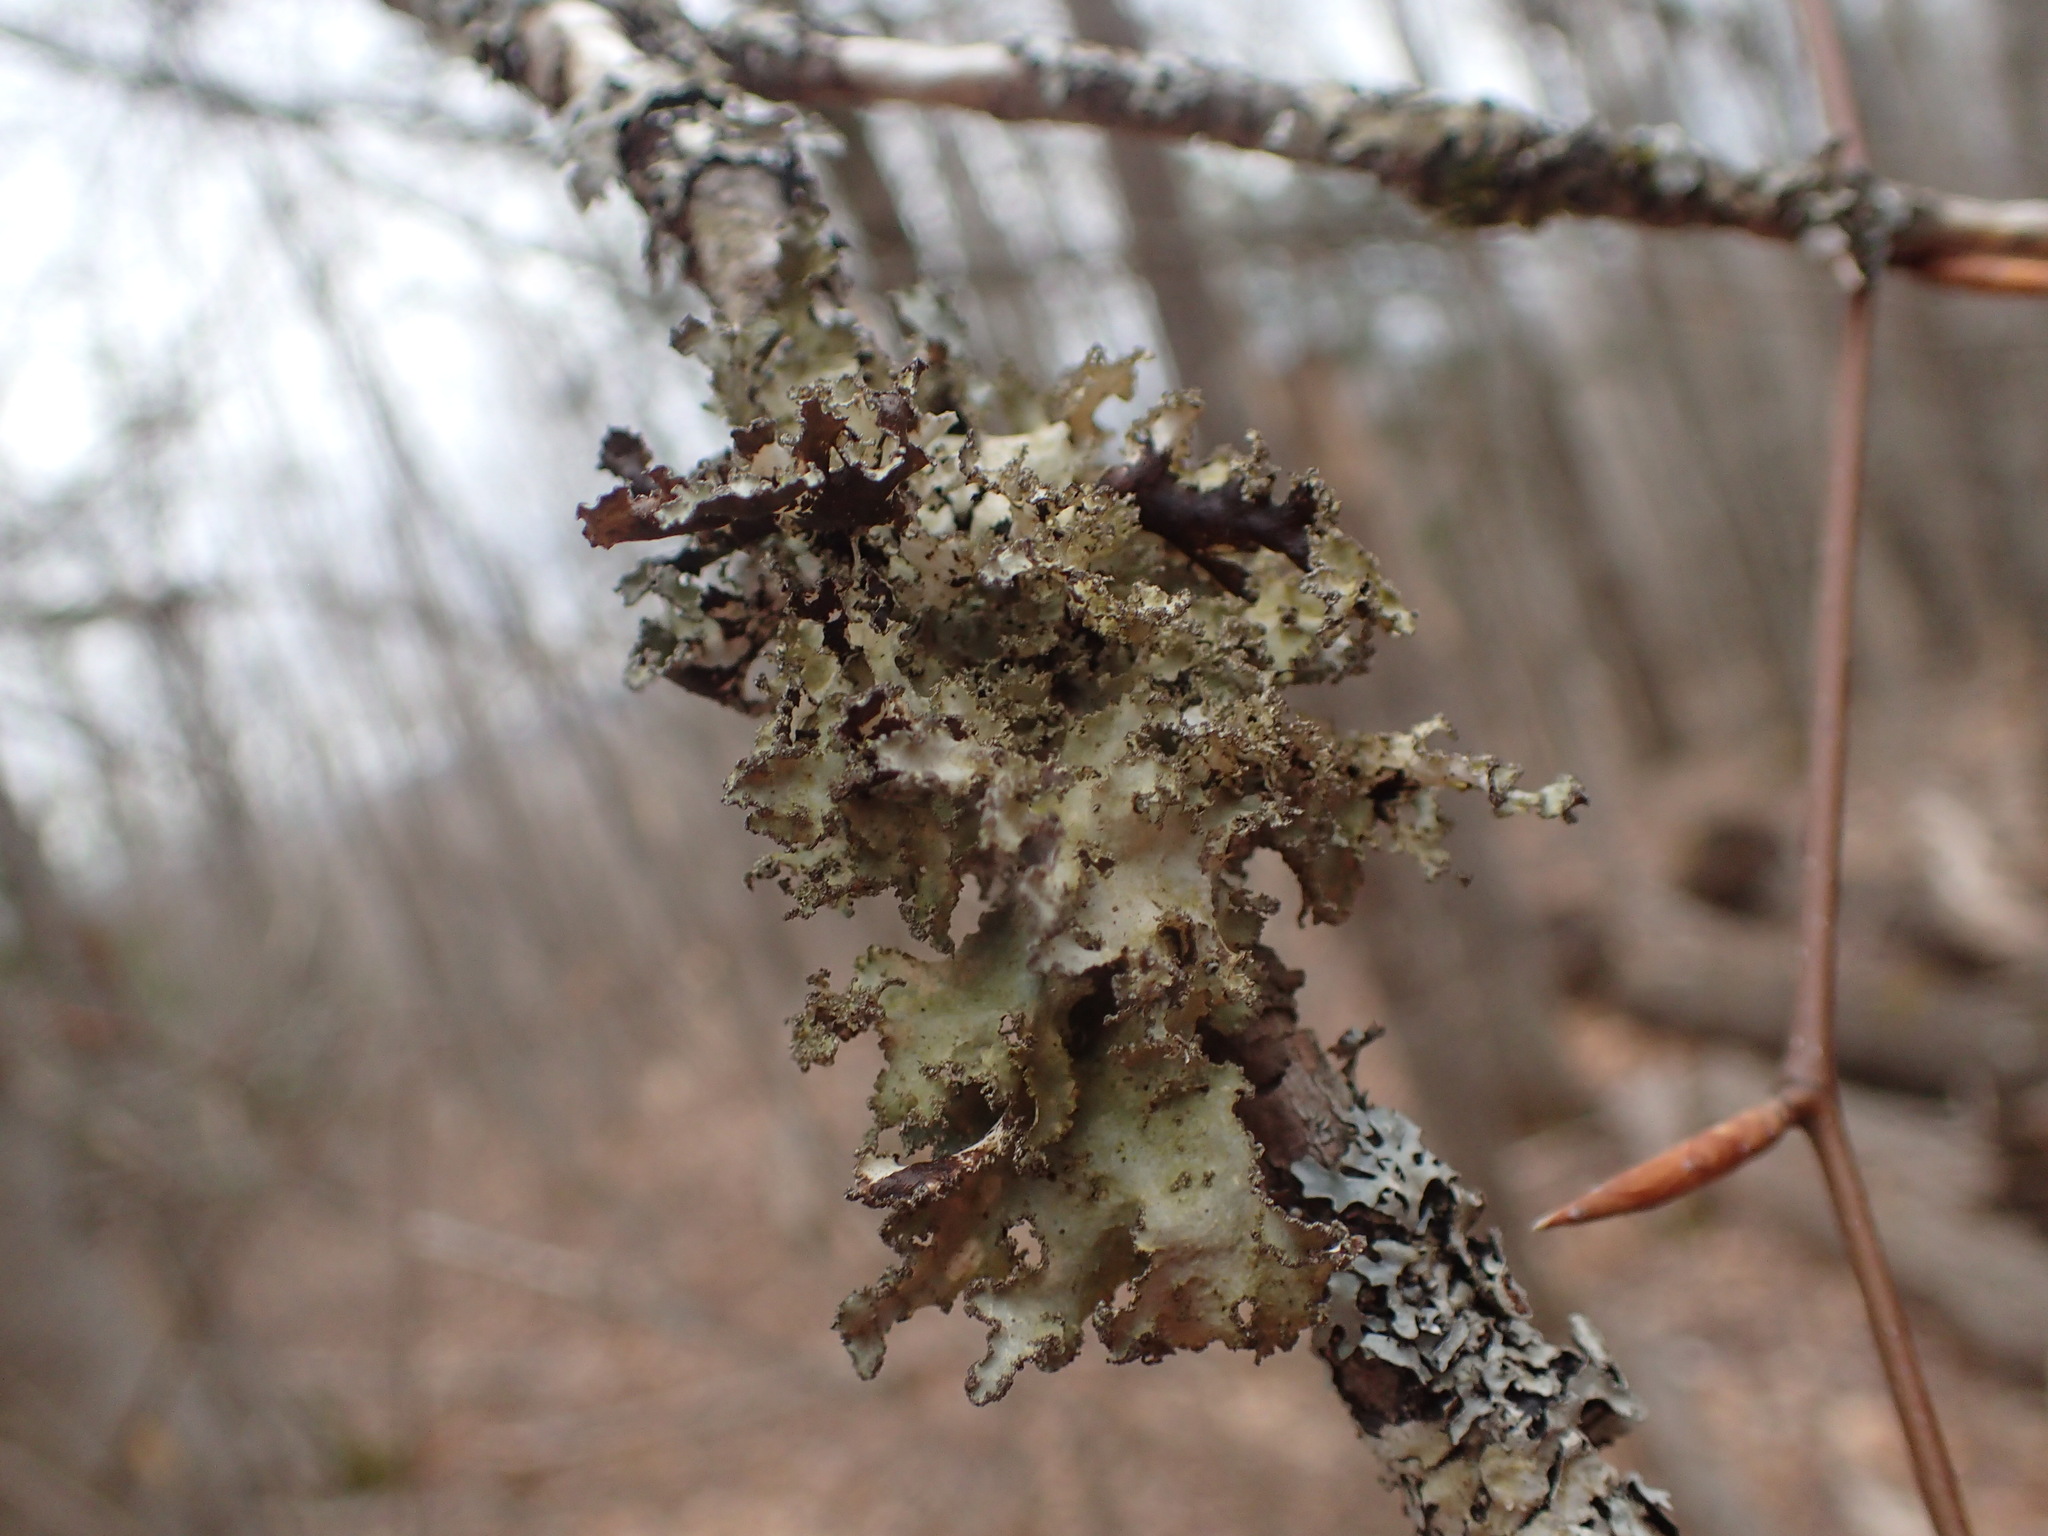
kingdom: Fungi
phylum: Ascomycota
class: Lecanoromycetes
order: Lecanorales
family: Parmeliaceae
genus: Platismatia
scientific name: Platismatia glauca
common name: Varied rag lichen
